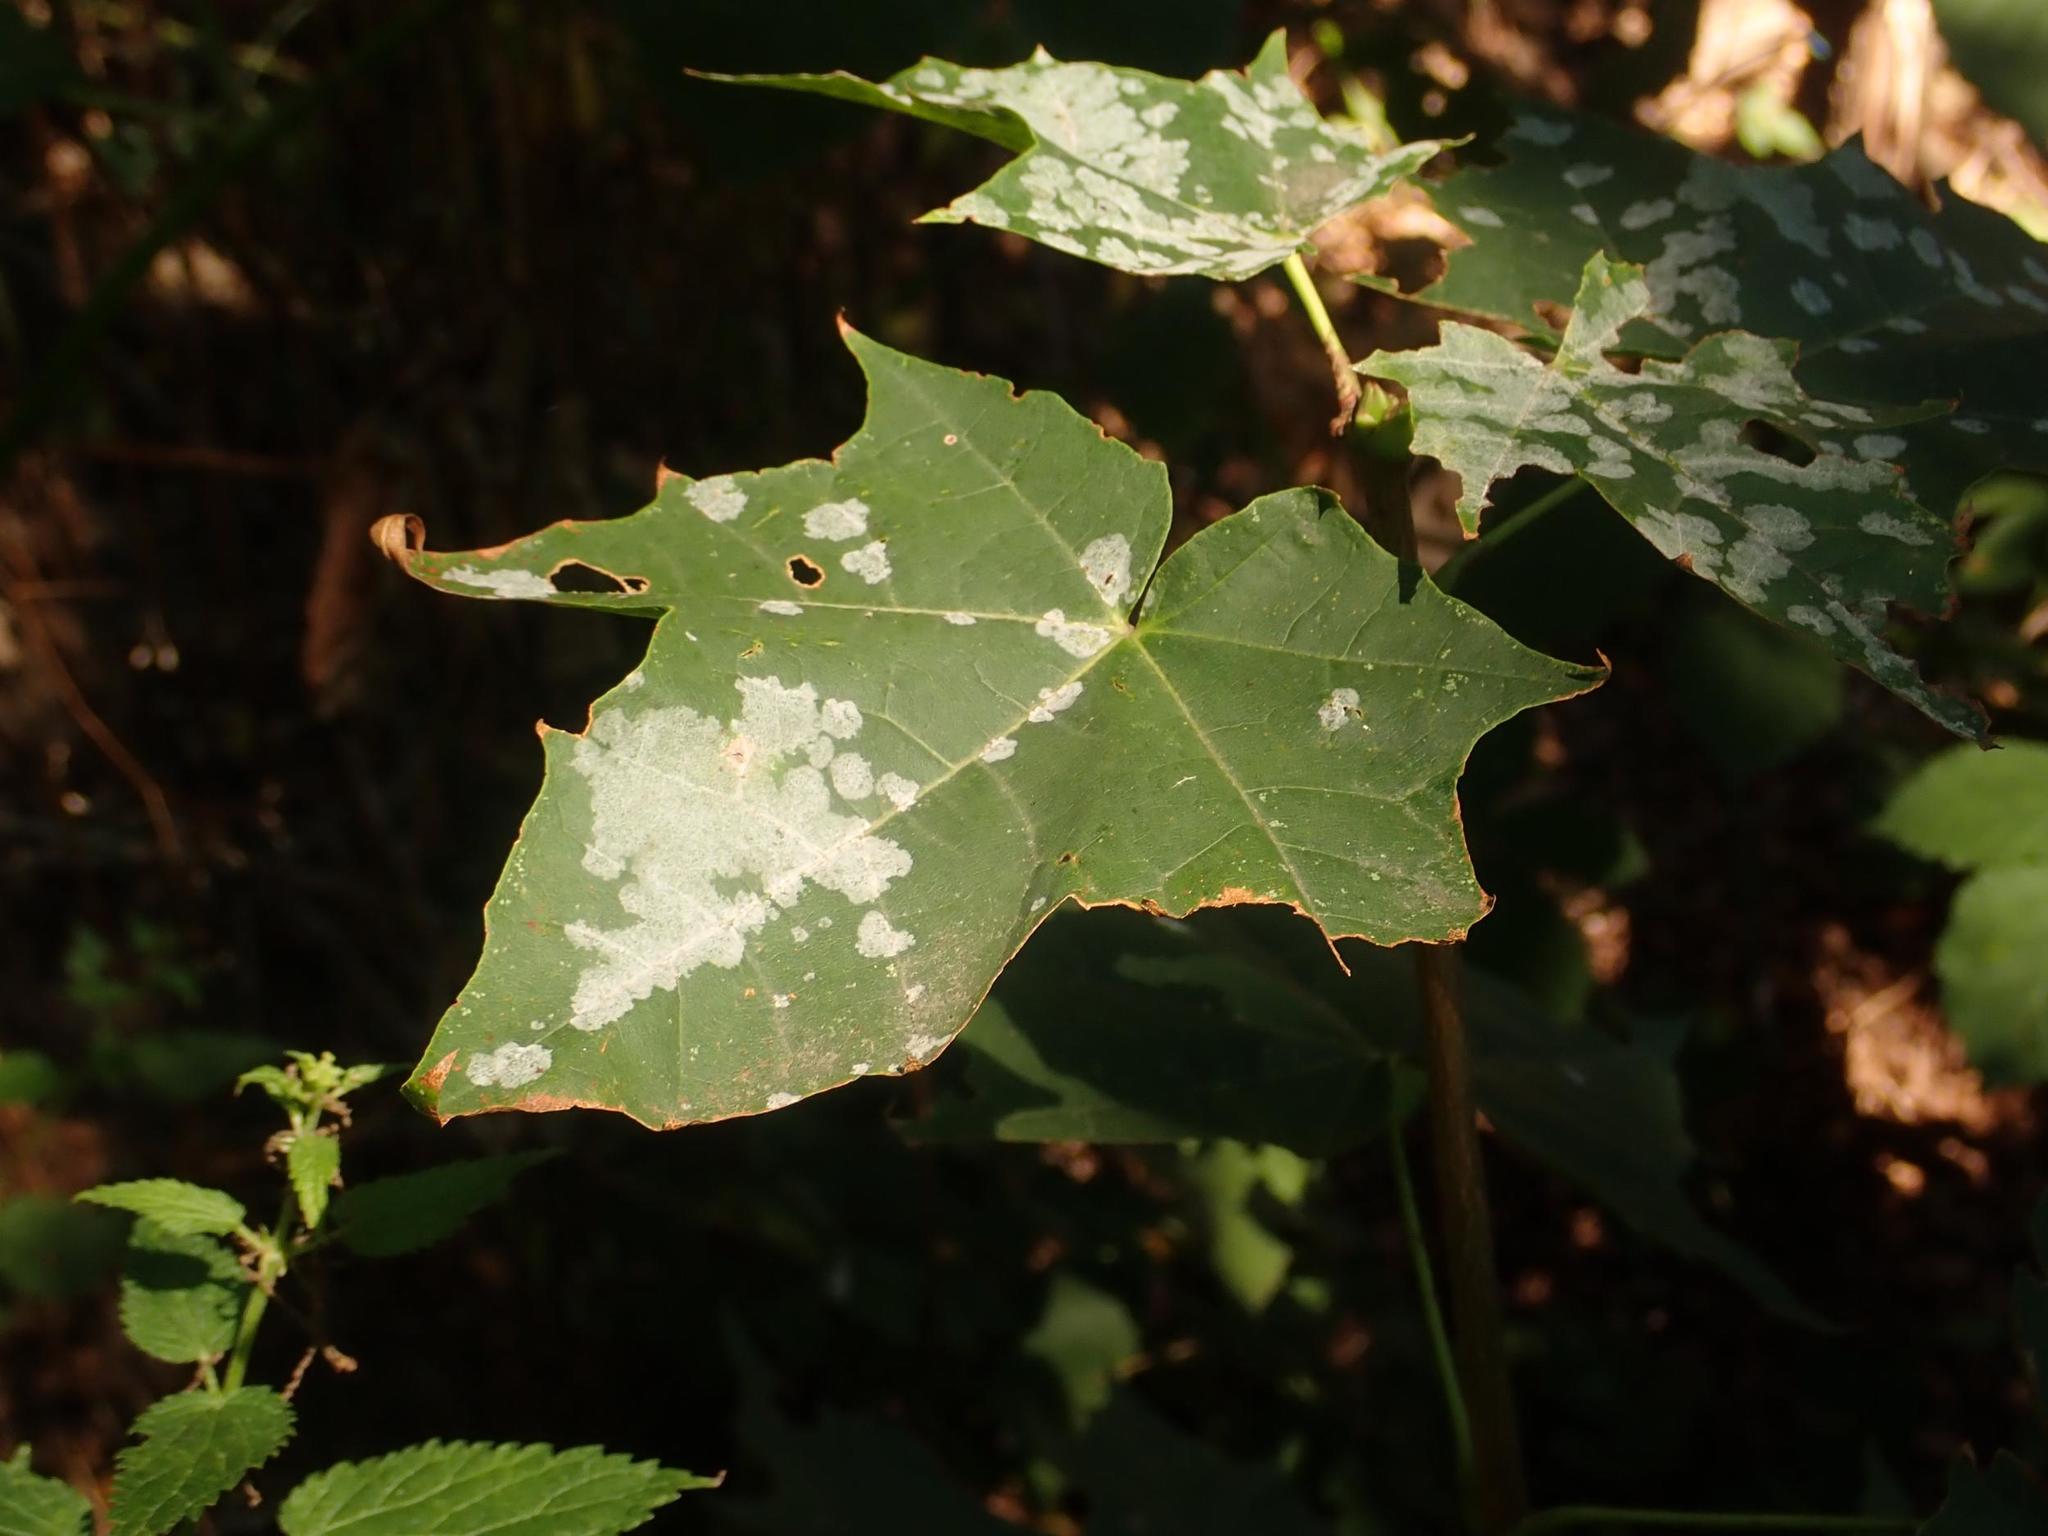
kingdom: Plantae
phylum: Tracheophyta
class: Magnoliopsida
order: Sapindales
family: Sapindaceae
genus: Acer
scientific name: Acer platanoides
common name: Norway maple
